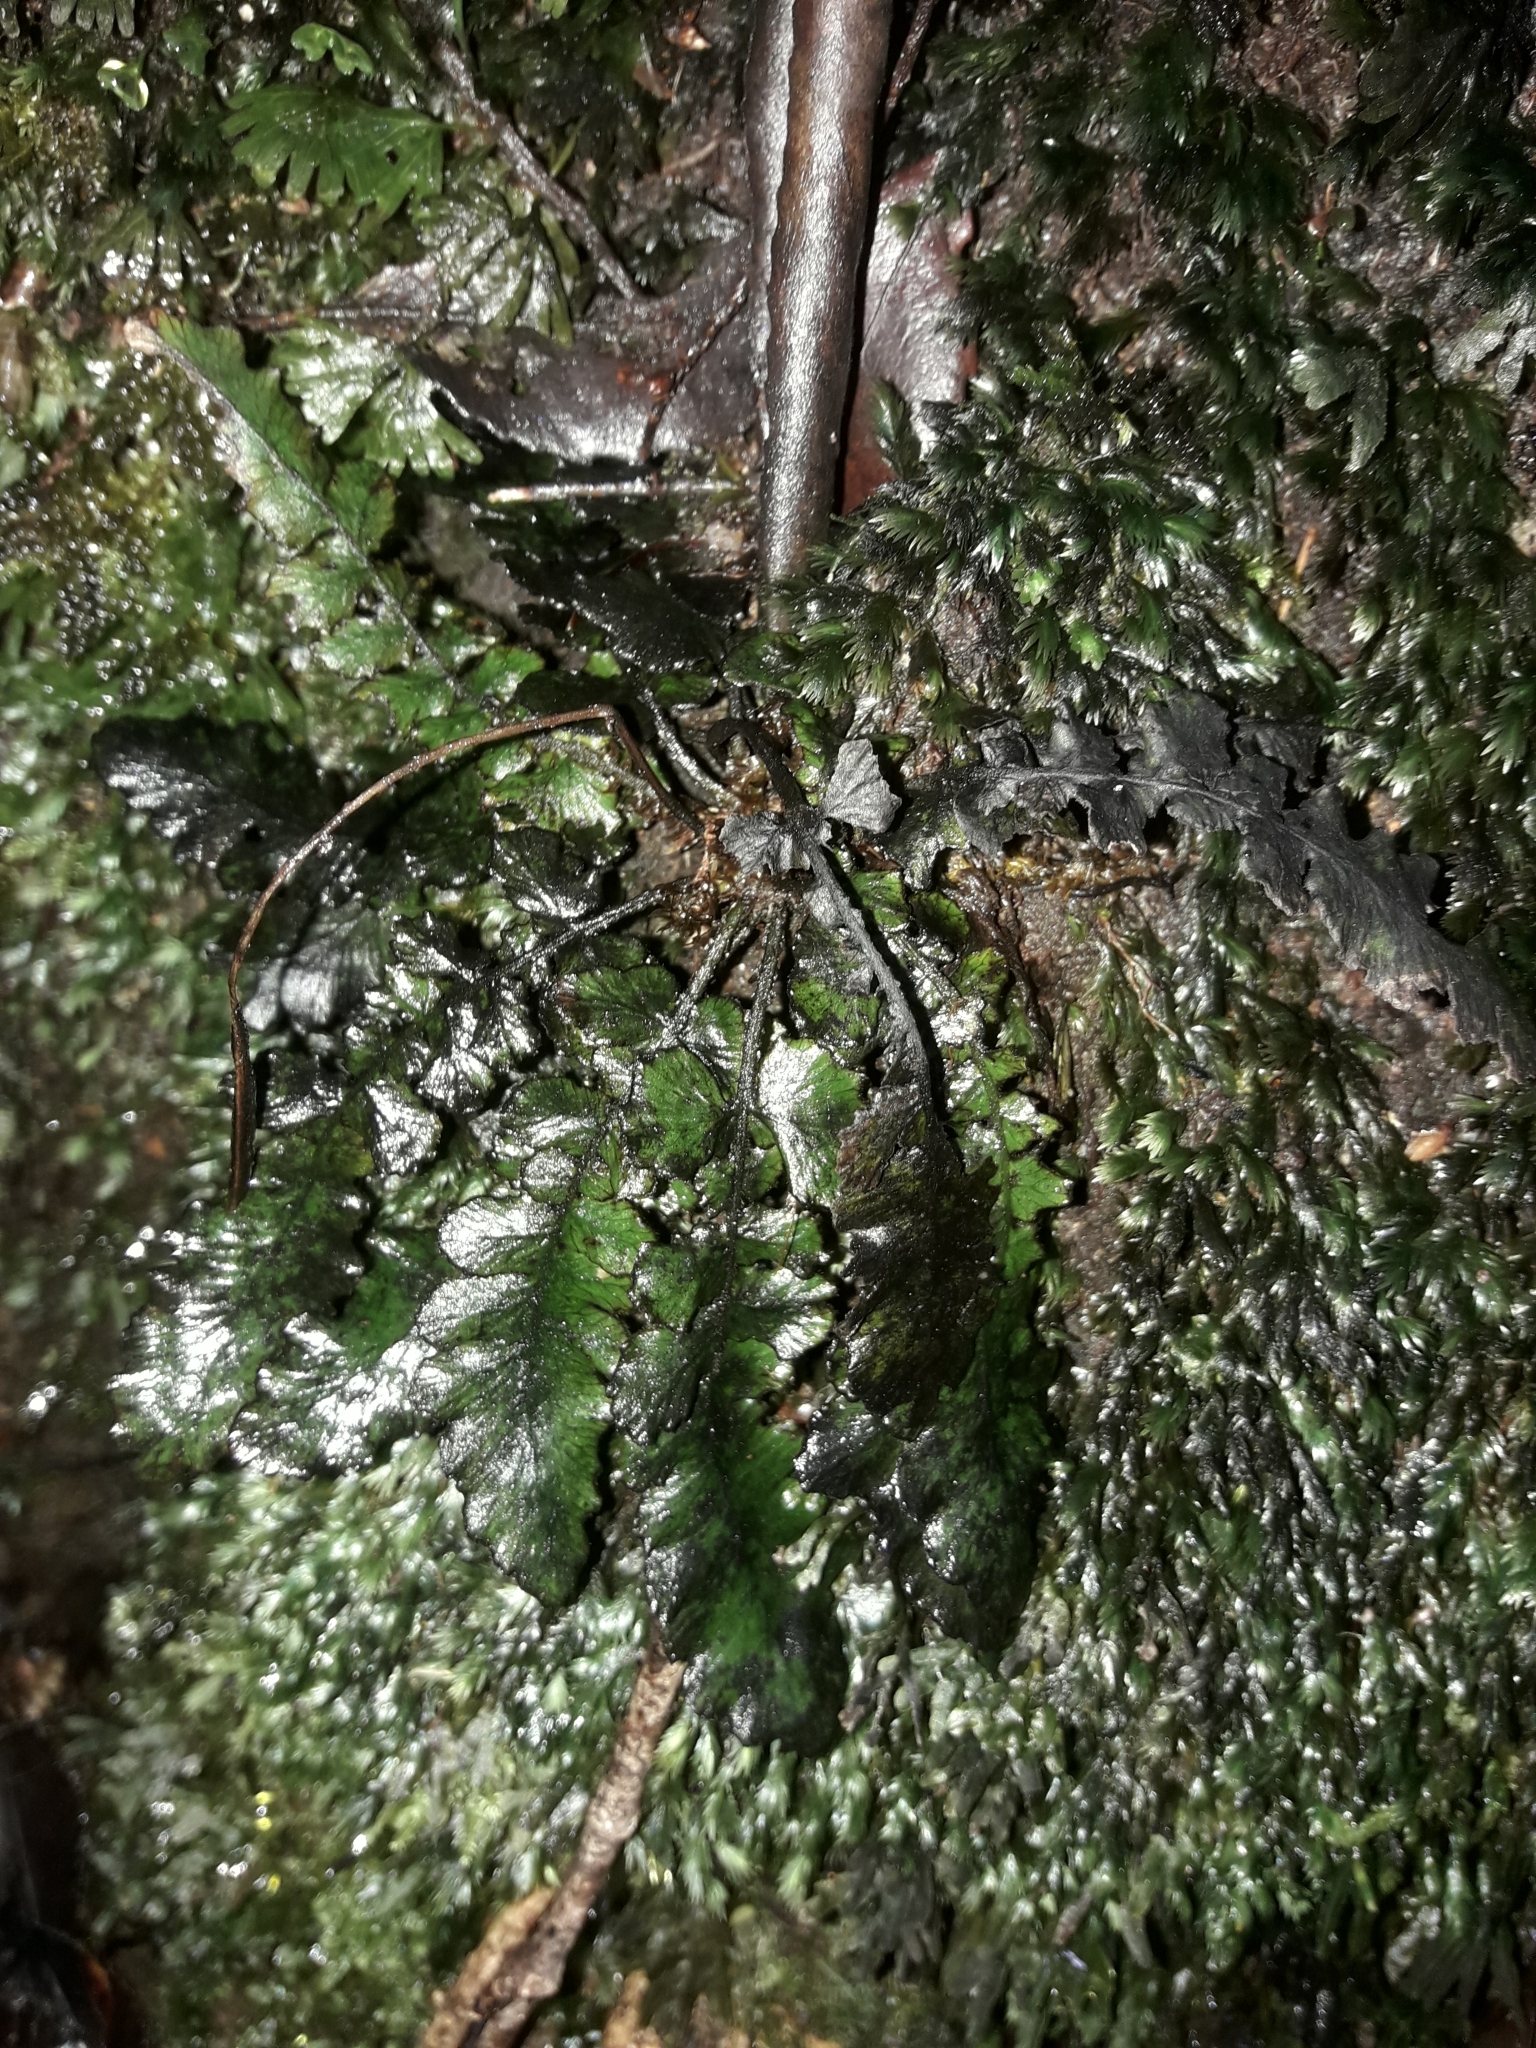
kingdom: Plantae
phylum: Tracheophyta
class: Polypodiopsida
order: Polypodiales
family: Blechnaceae
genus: Cranfillia
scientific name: Cranfillia nigra
